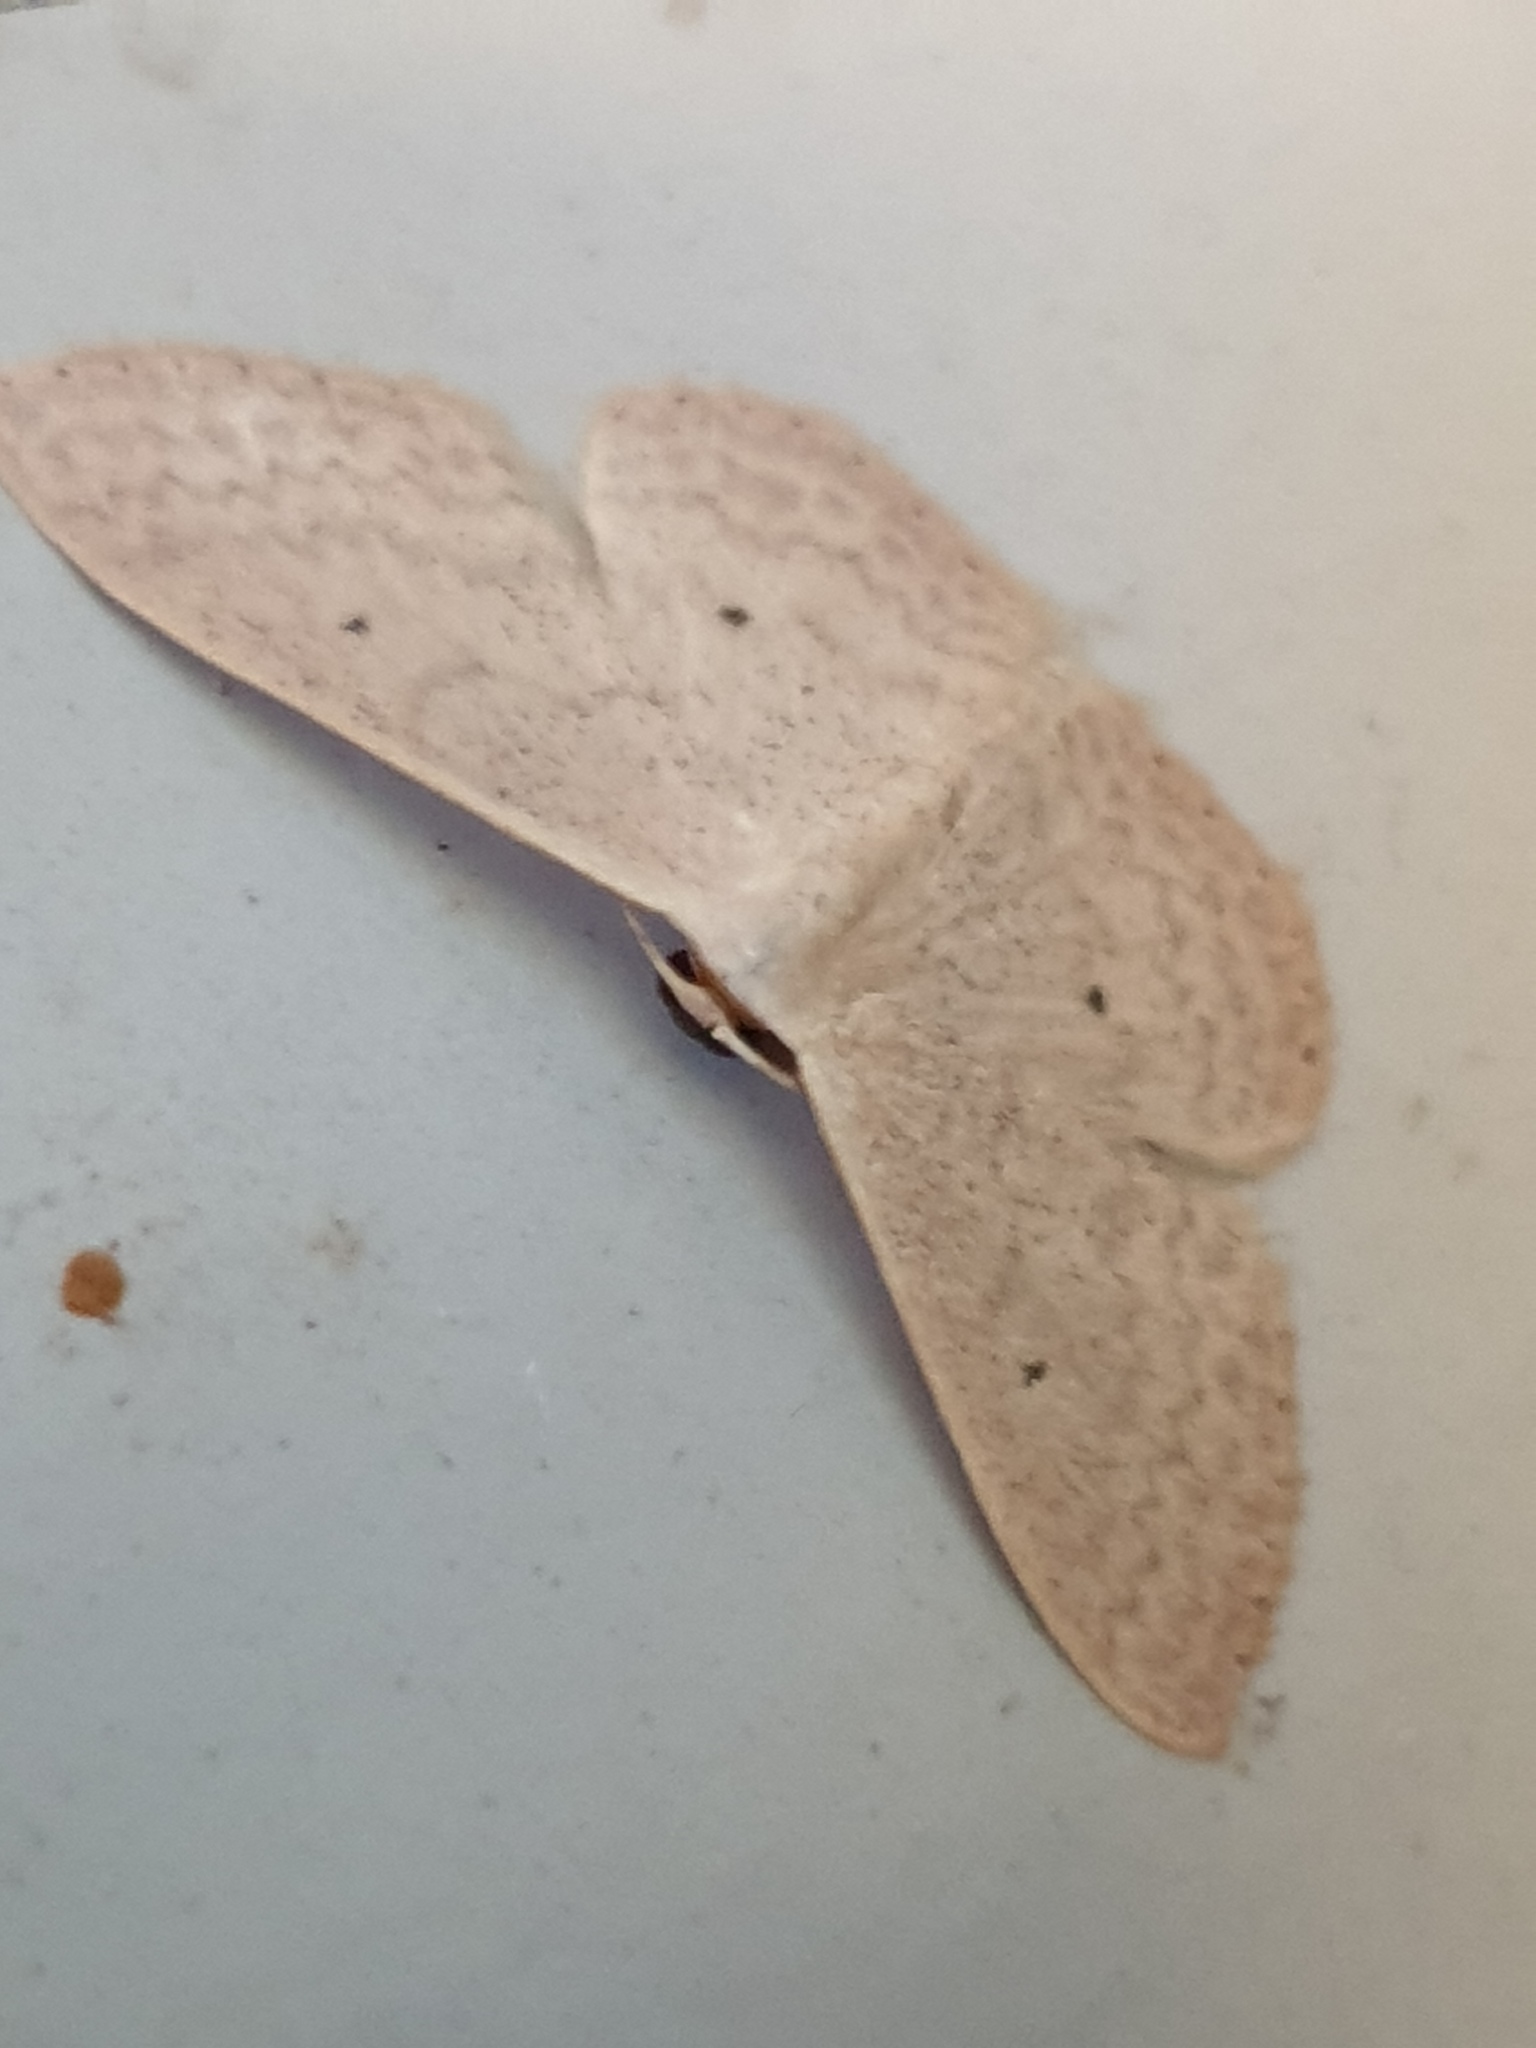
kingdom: Animalia
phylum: Arthropoda
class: Insecta
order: Lepidoptera
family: Geometridae
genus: Scopula
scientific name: Scopula optivata
